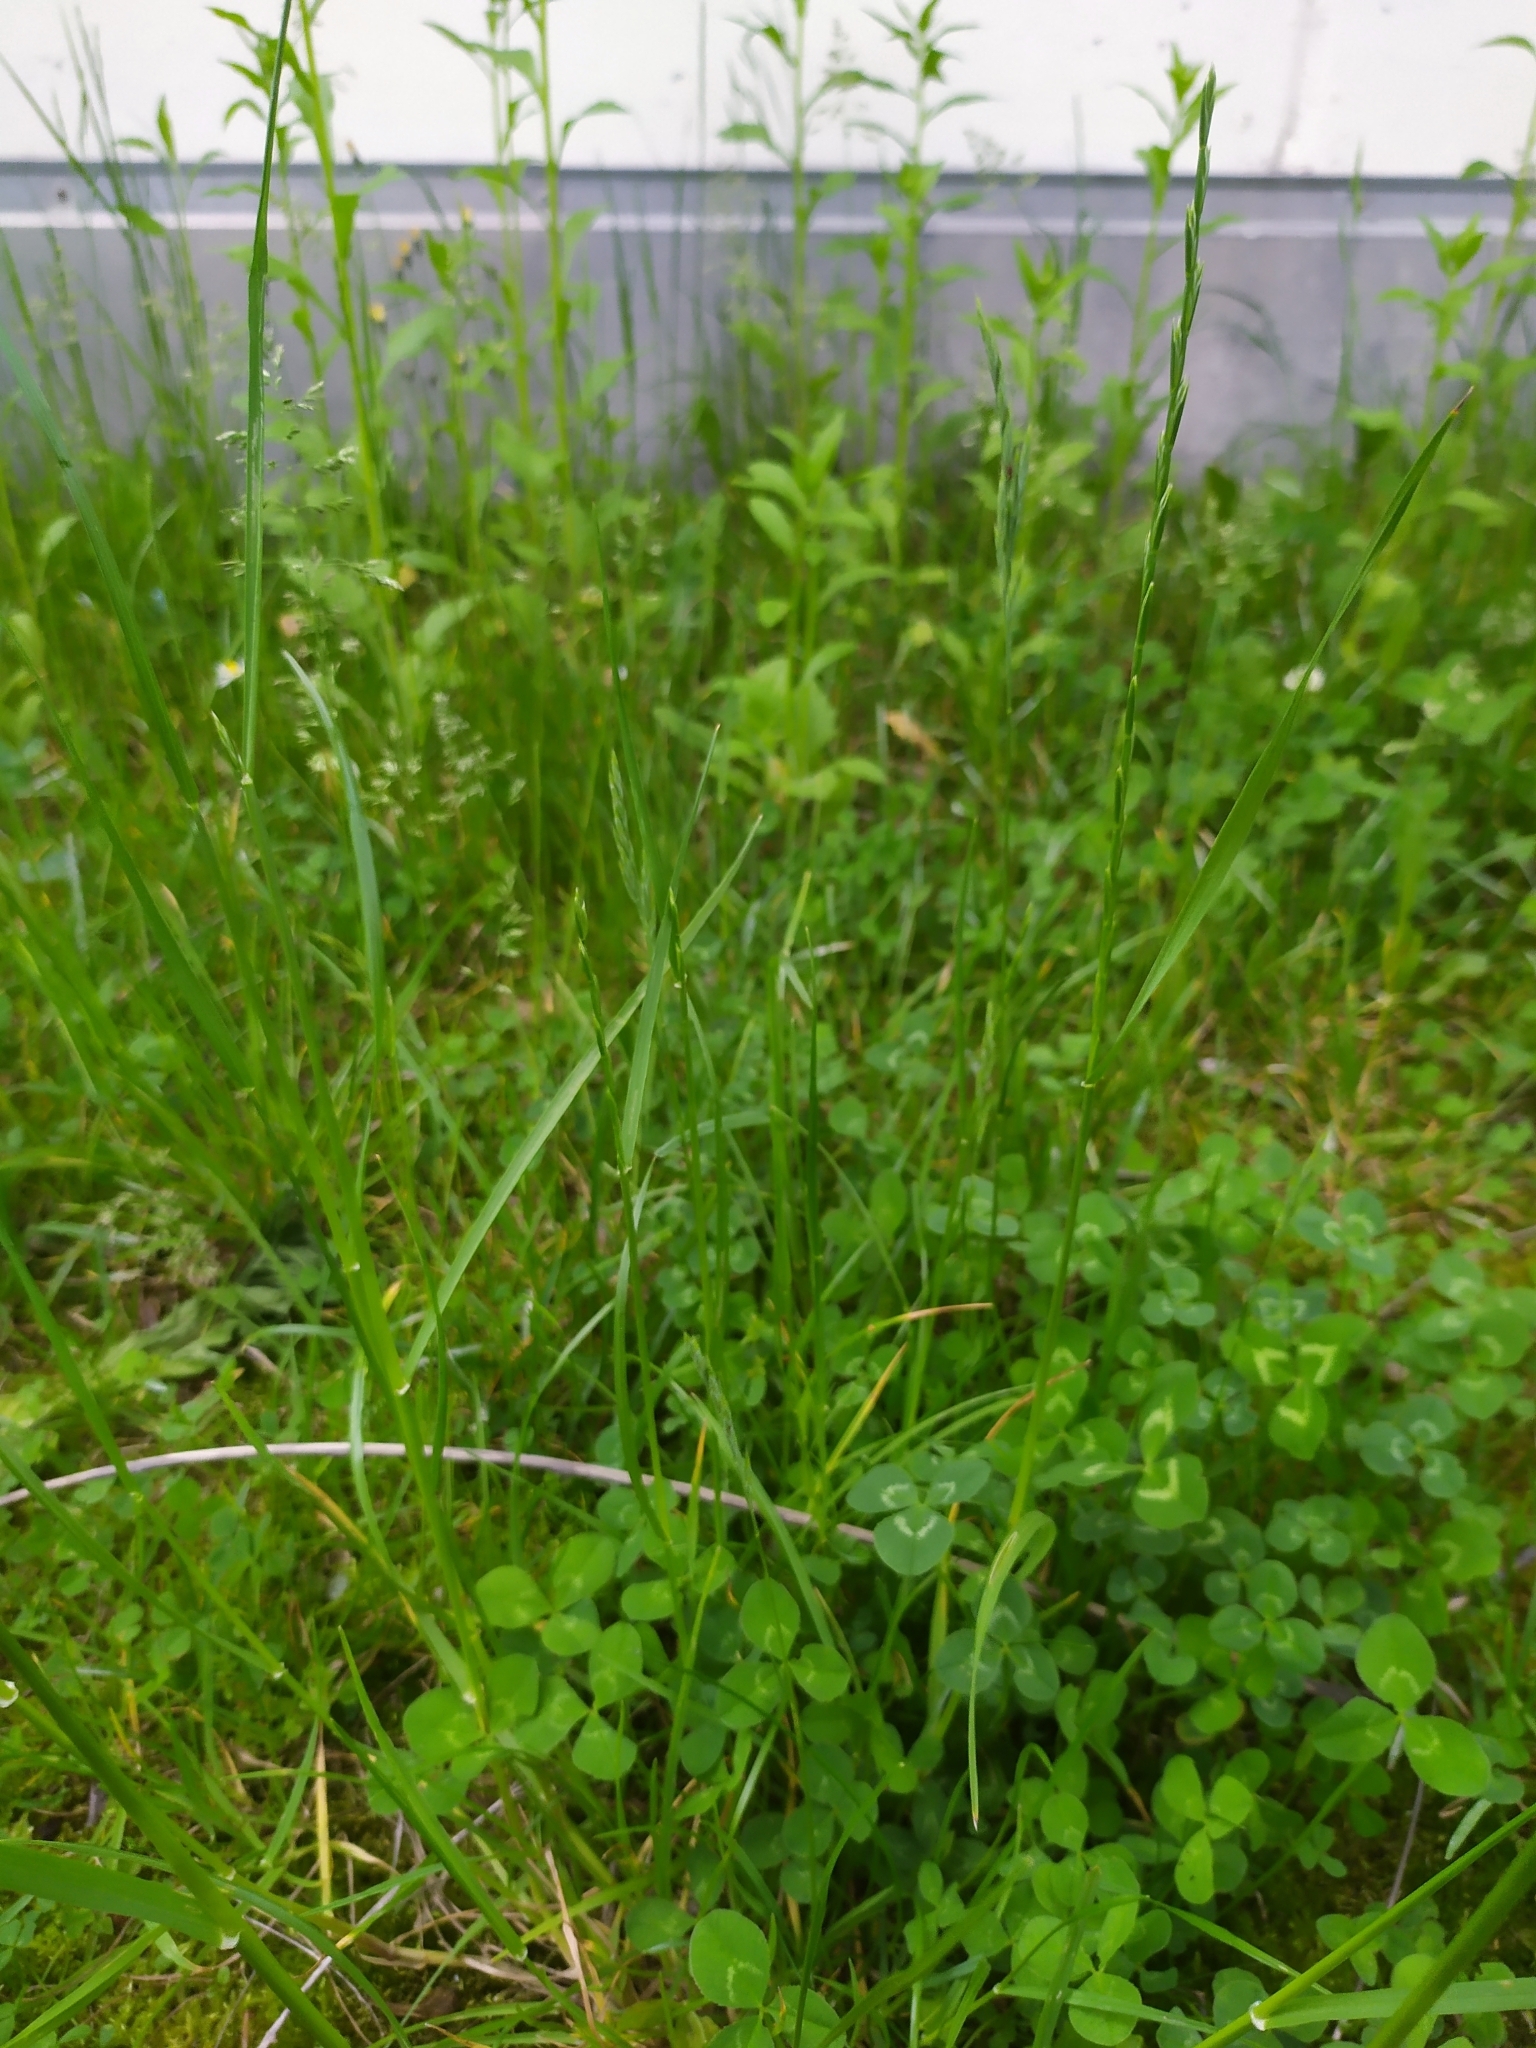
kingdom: Plantae
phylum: Tracheophyta
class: Liliopsida
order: Poales
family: Poaceae
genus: Lolium
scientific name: Lolium perenne
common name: Perennial ryegrass
